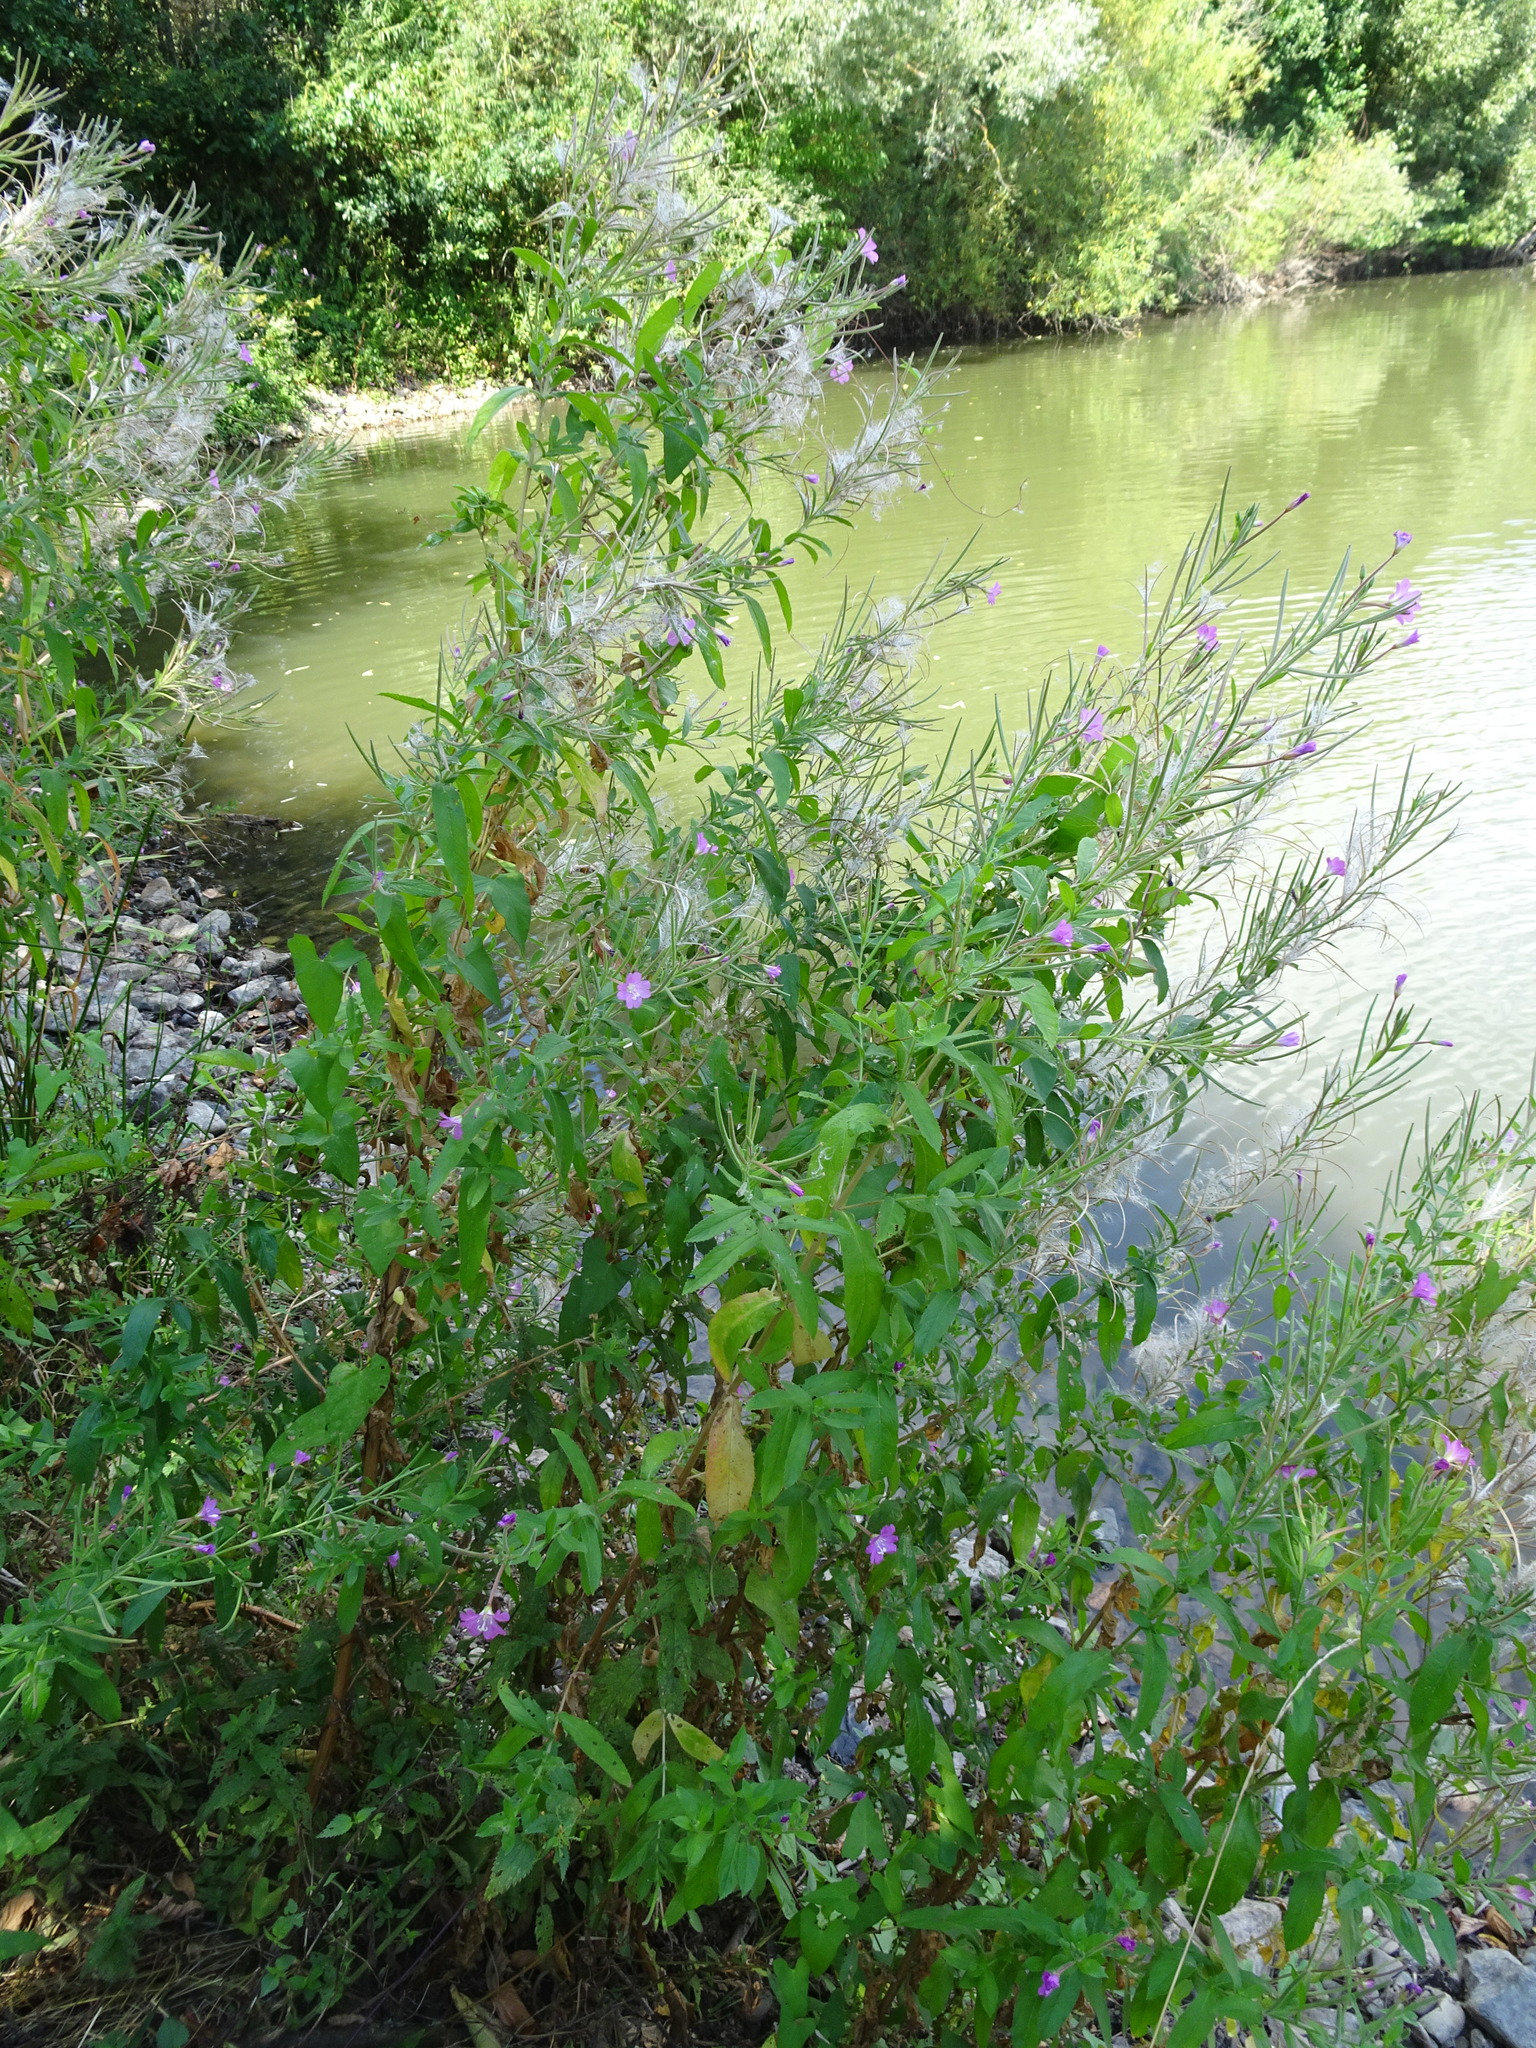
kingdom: Plantae
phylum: Tracheophyta
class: Magnoliopsida
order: Myrtales
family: Onagraceae
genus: Epilobium
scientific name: Epilobium hirsutum
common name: Great willowherb
